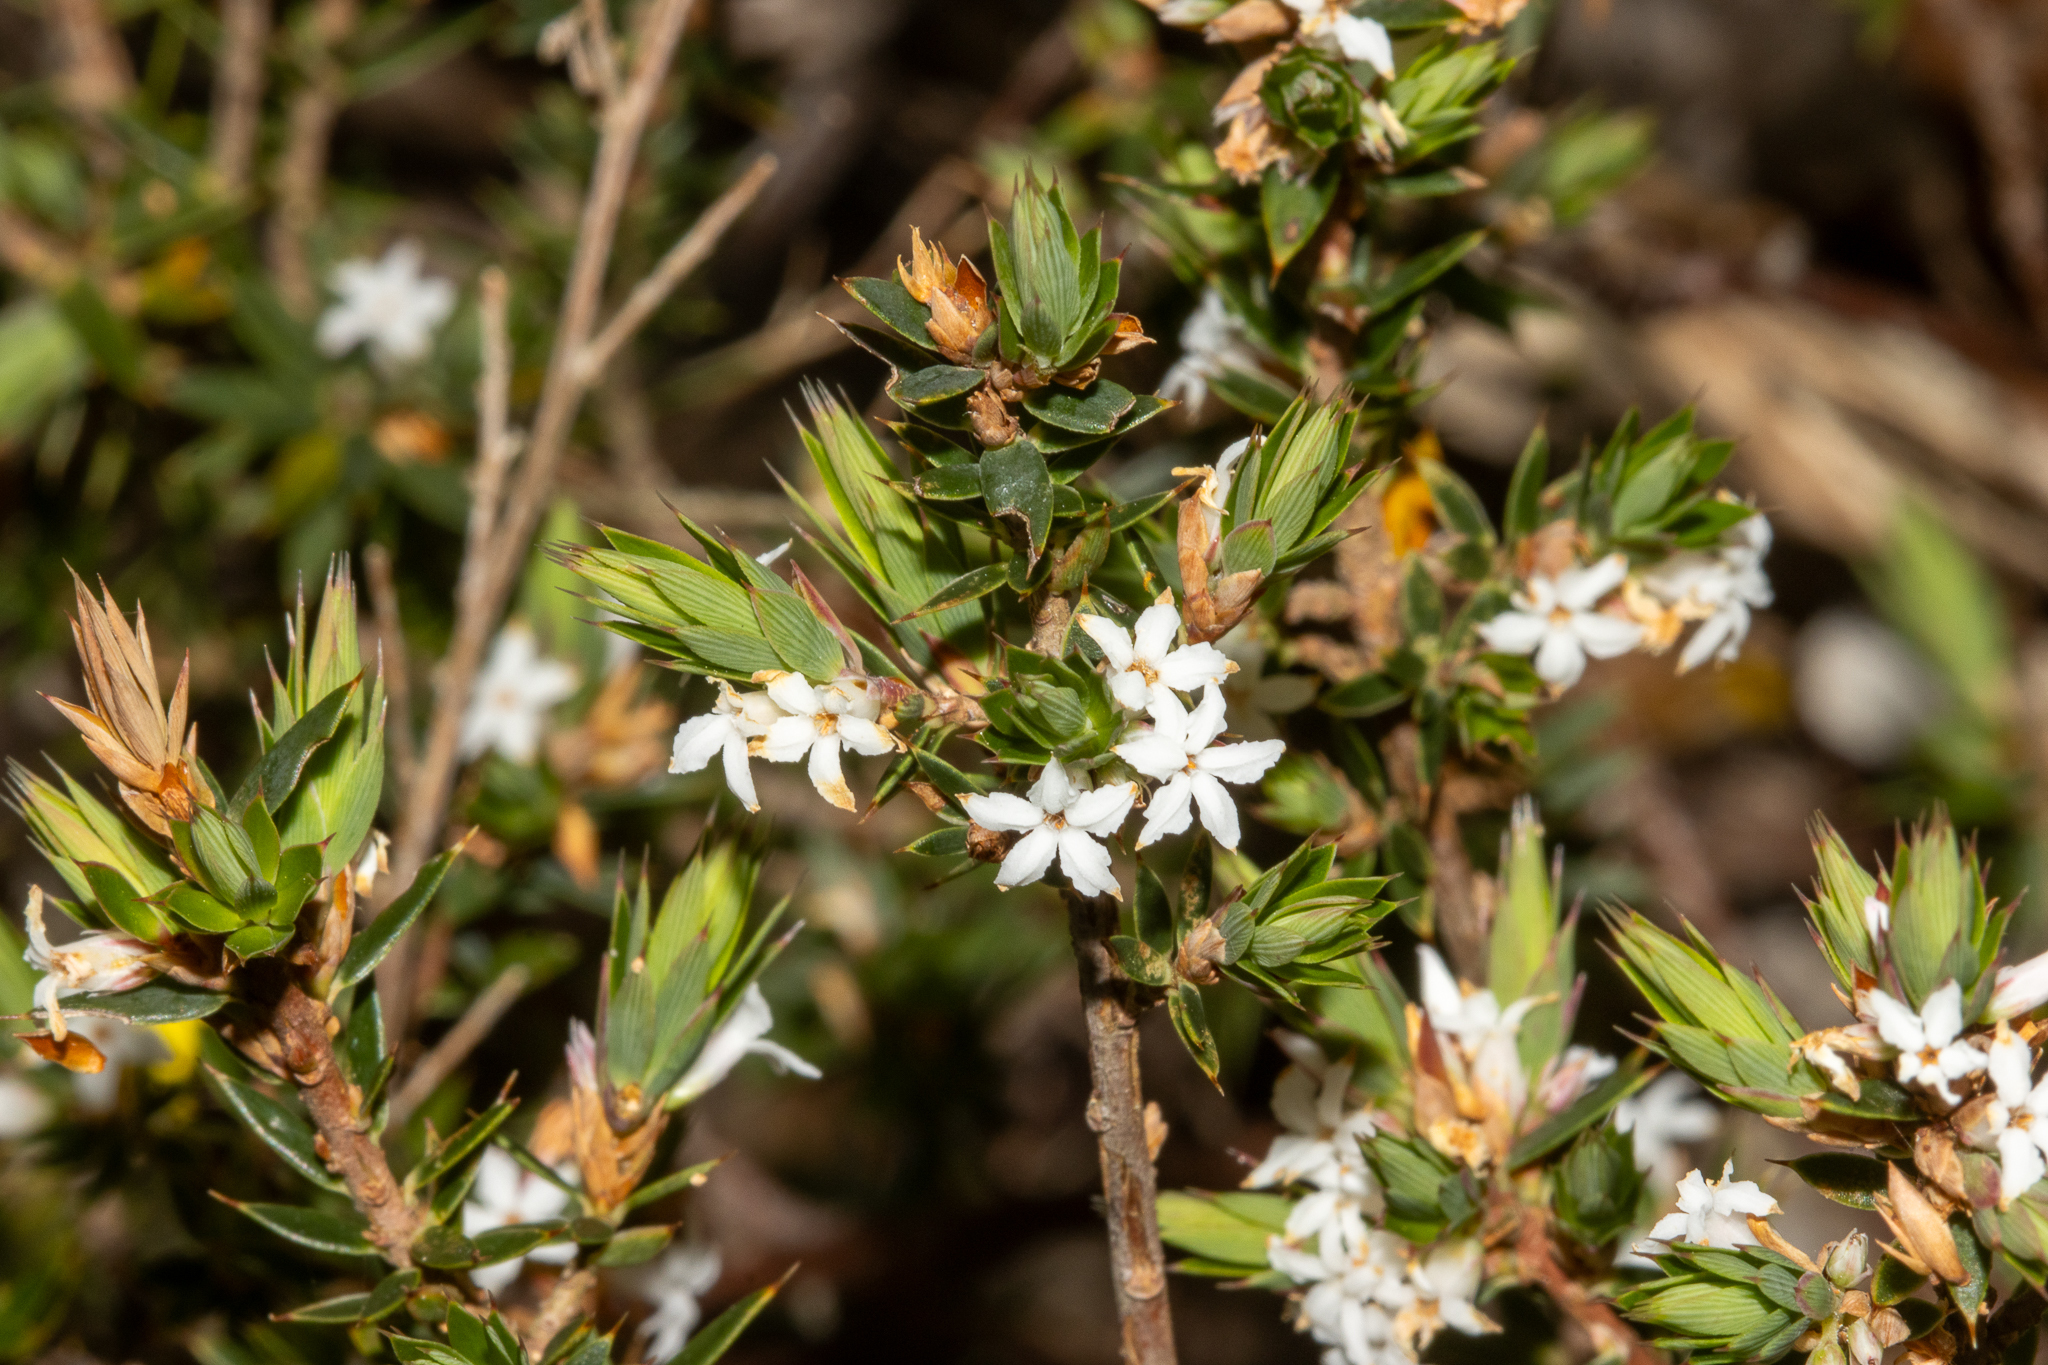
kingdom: Plantae
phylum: Tracheophyta
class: Magnoliopsida
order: Ericales
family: Ericaceae
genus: Brachyloma
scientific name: Brachyloma depressum
